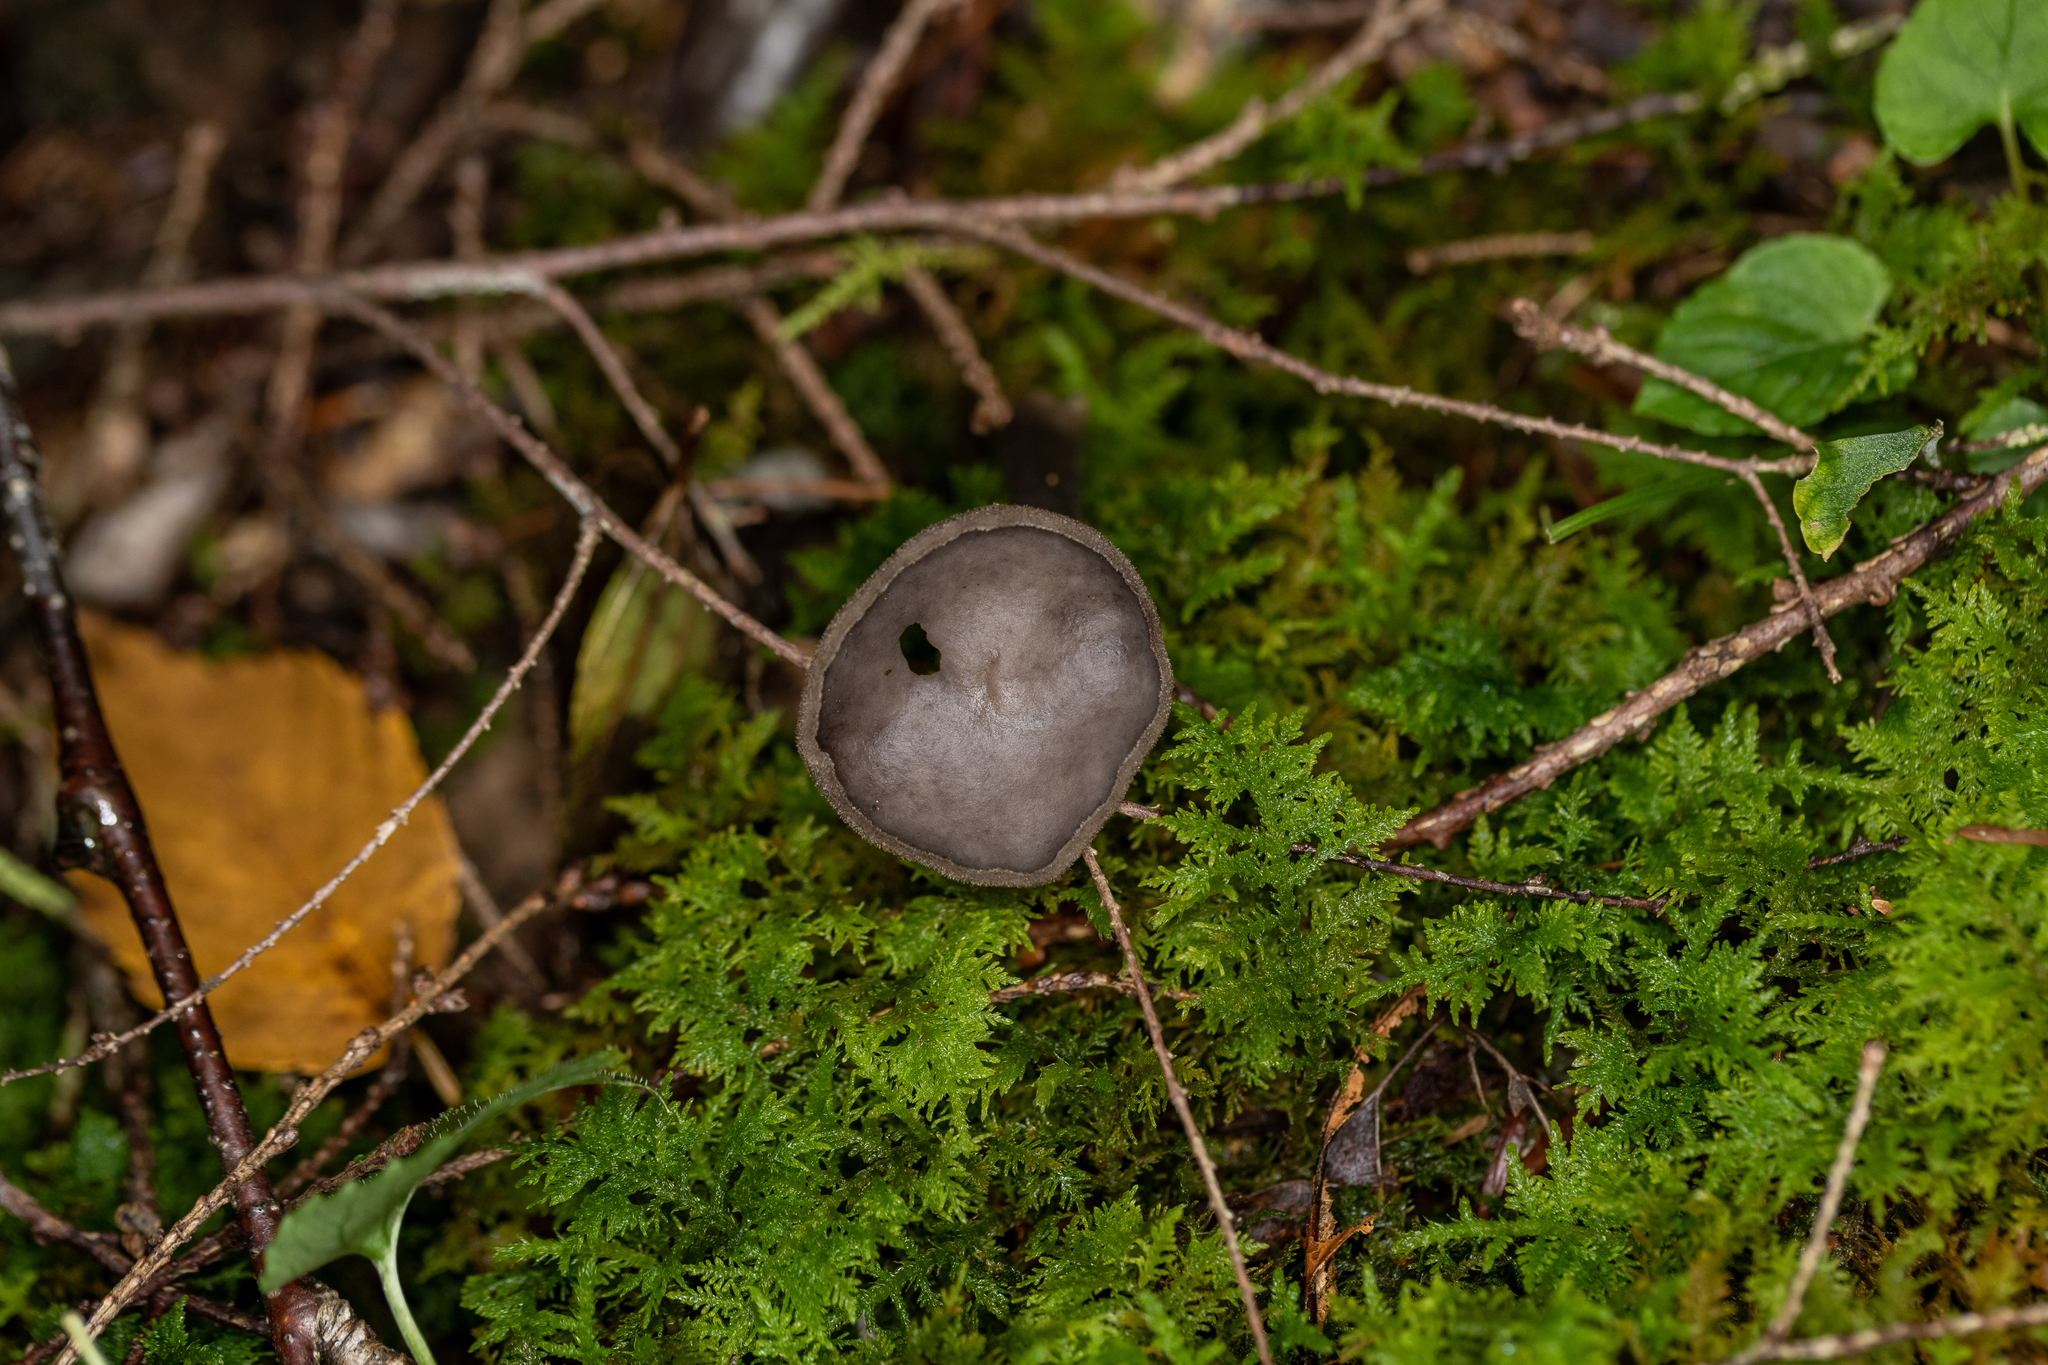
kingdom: Fungi
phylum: Ascomycota
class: Pezizomycetes
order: Pezizales
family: Helvellaceae
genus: Helvella
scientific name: Helvella macropus
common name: Felt saddle
